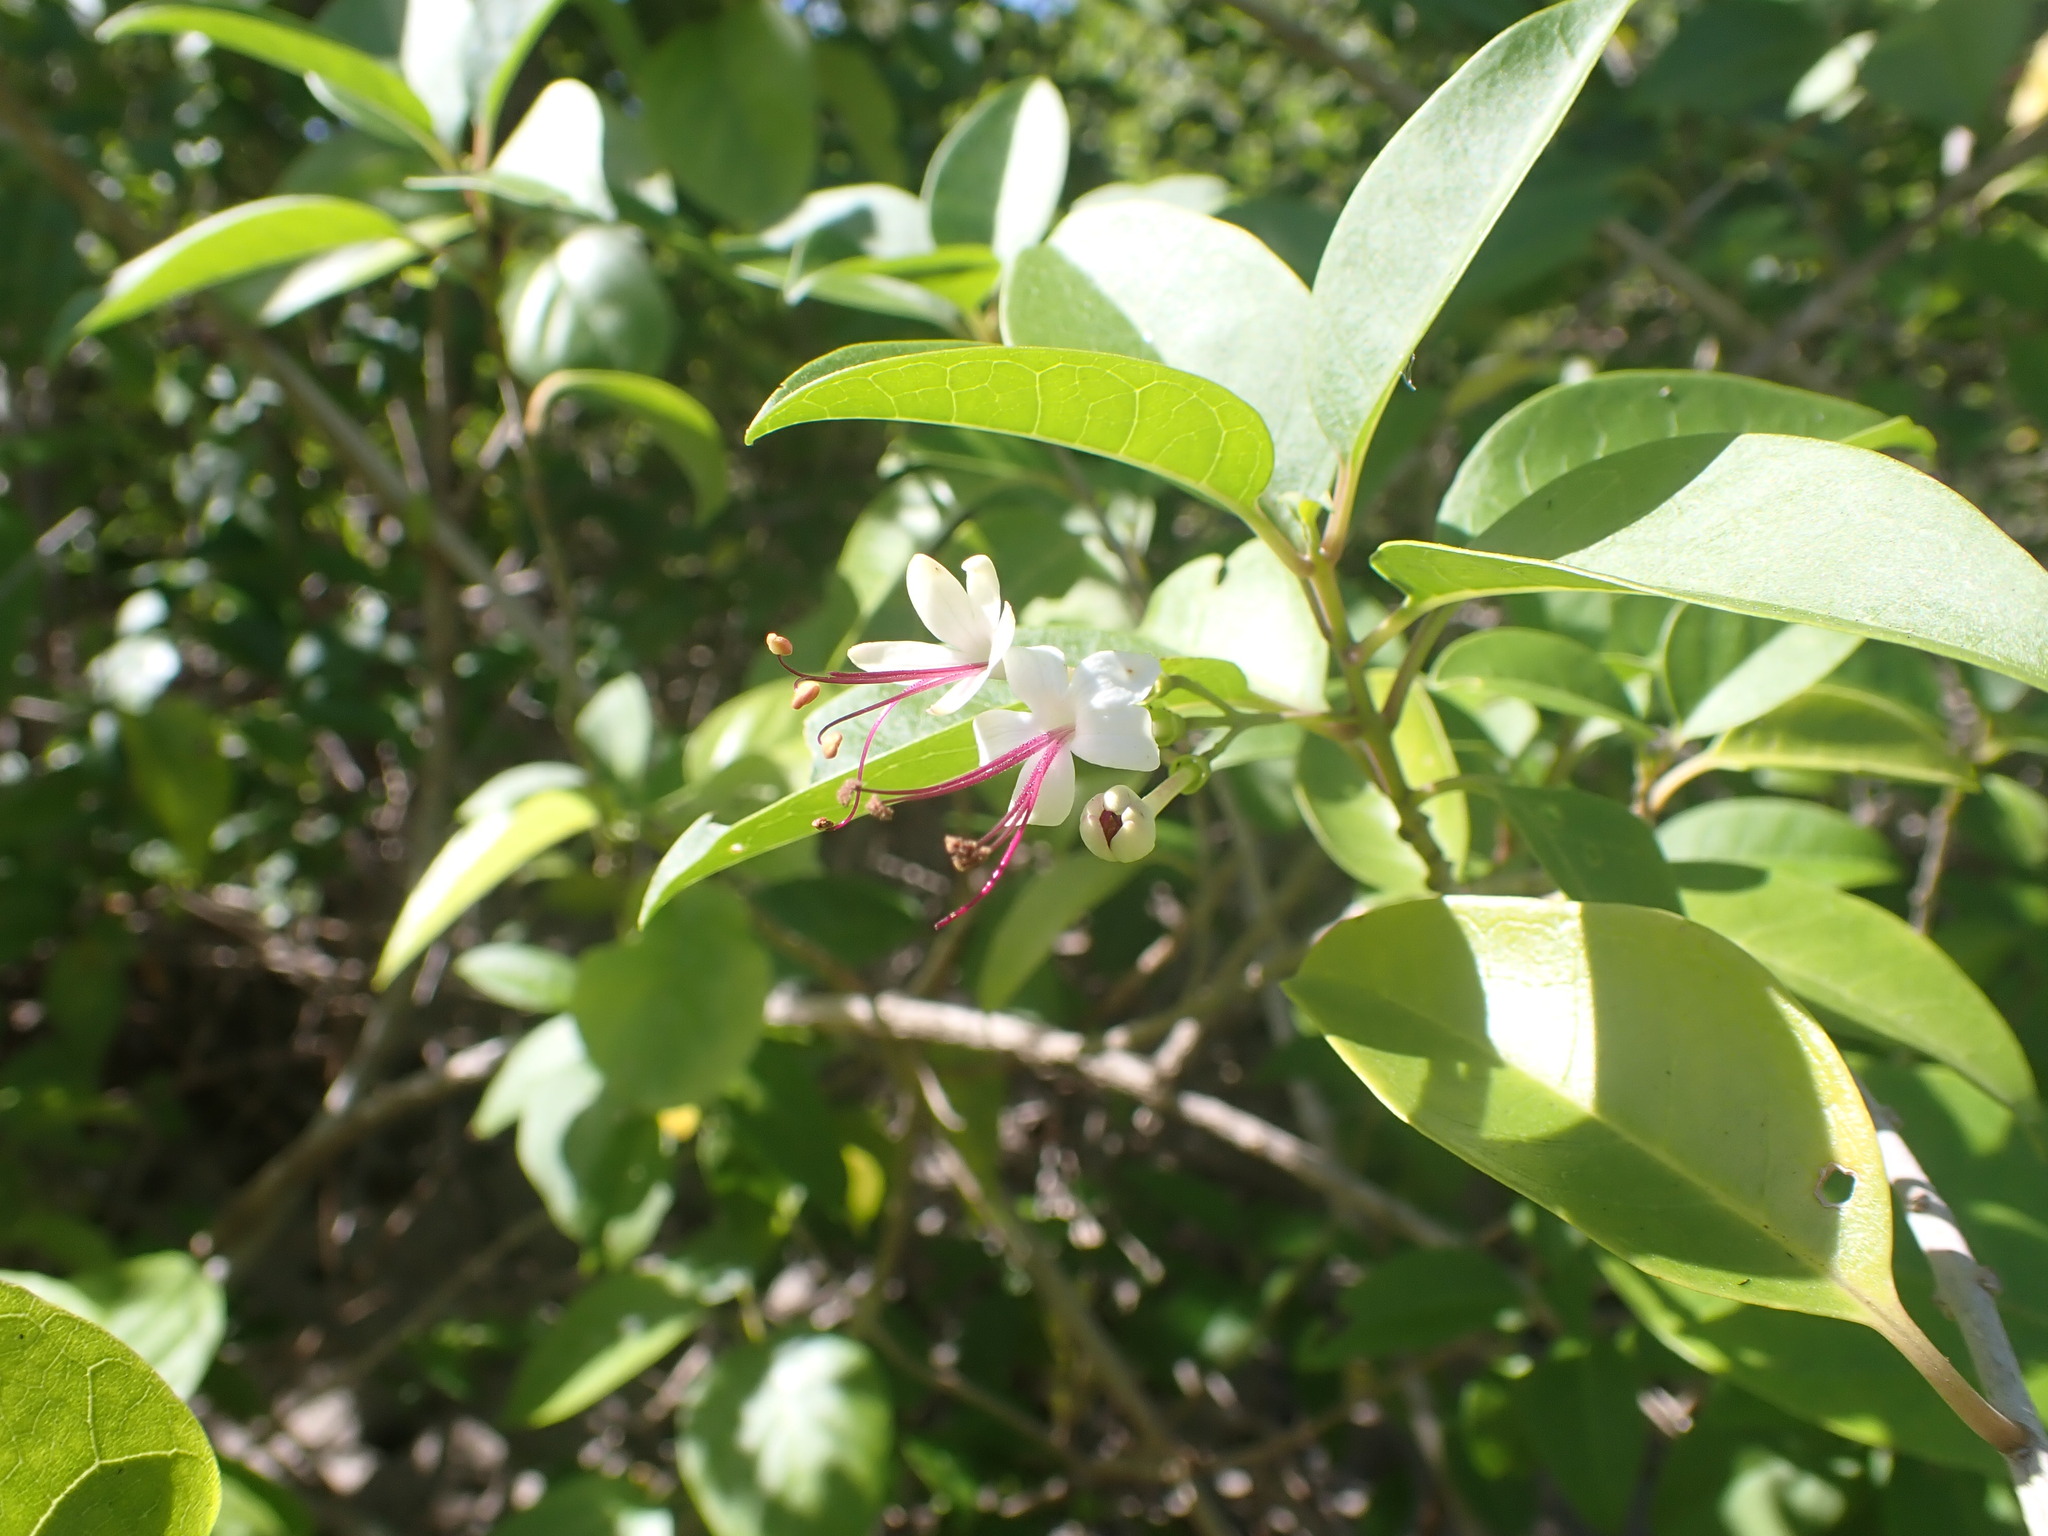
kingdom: Plantae
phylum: Tracheophyta
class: Magnoliopsida
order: Lamiales
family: Lamiaceae
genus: Volkameria
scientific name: Volkameria inermis
